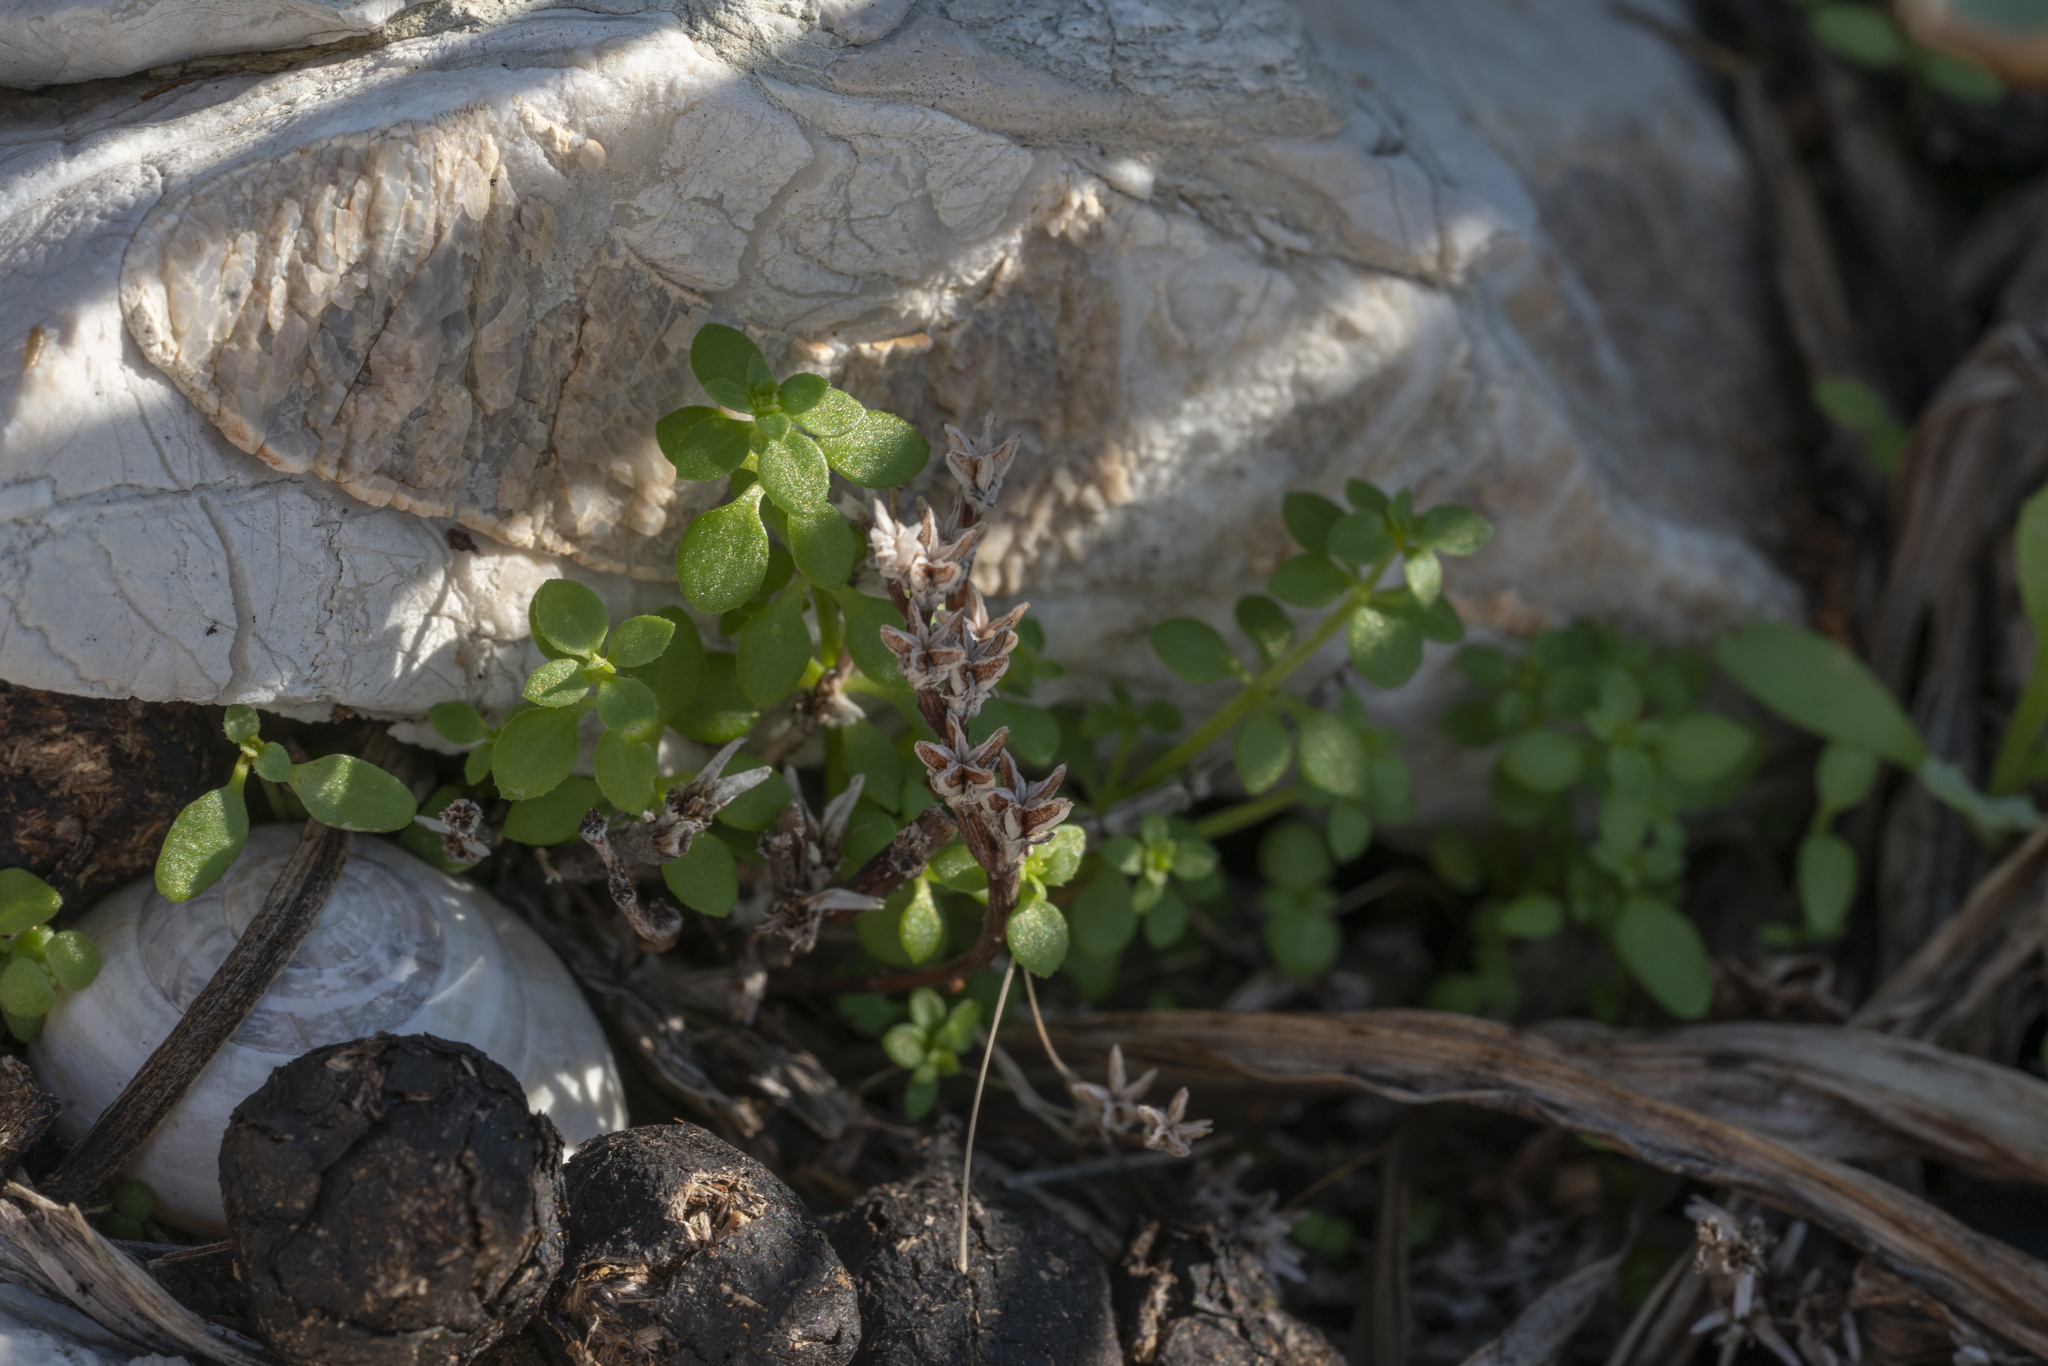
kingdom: Plantae
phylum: Tracheophyta
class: Magnoliopsida
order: Saxifragales
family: Crassulaceae
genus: Sedum
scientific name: Sedum litoreum
